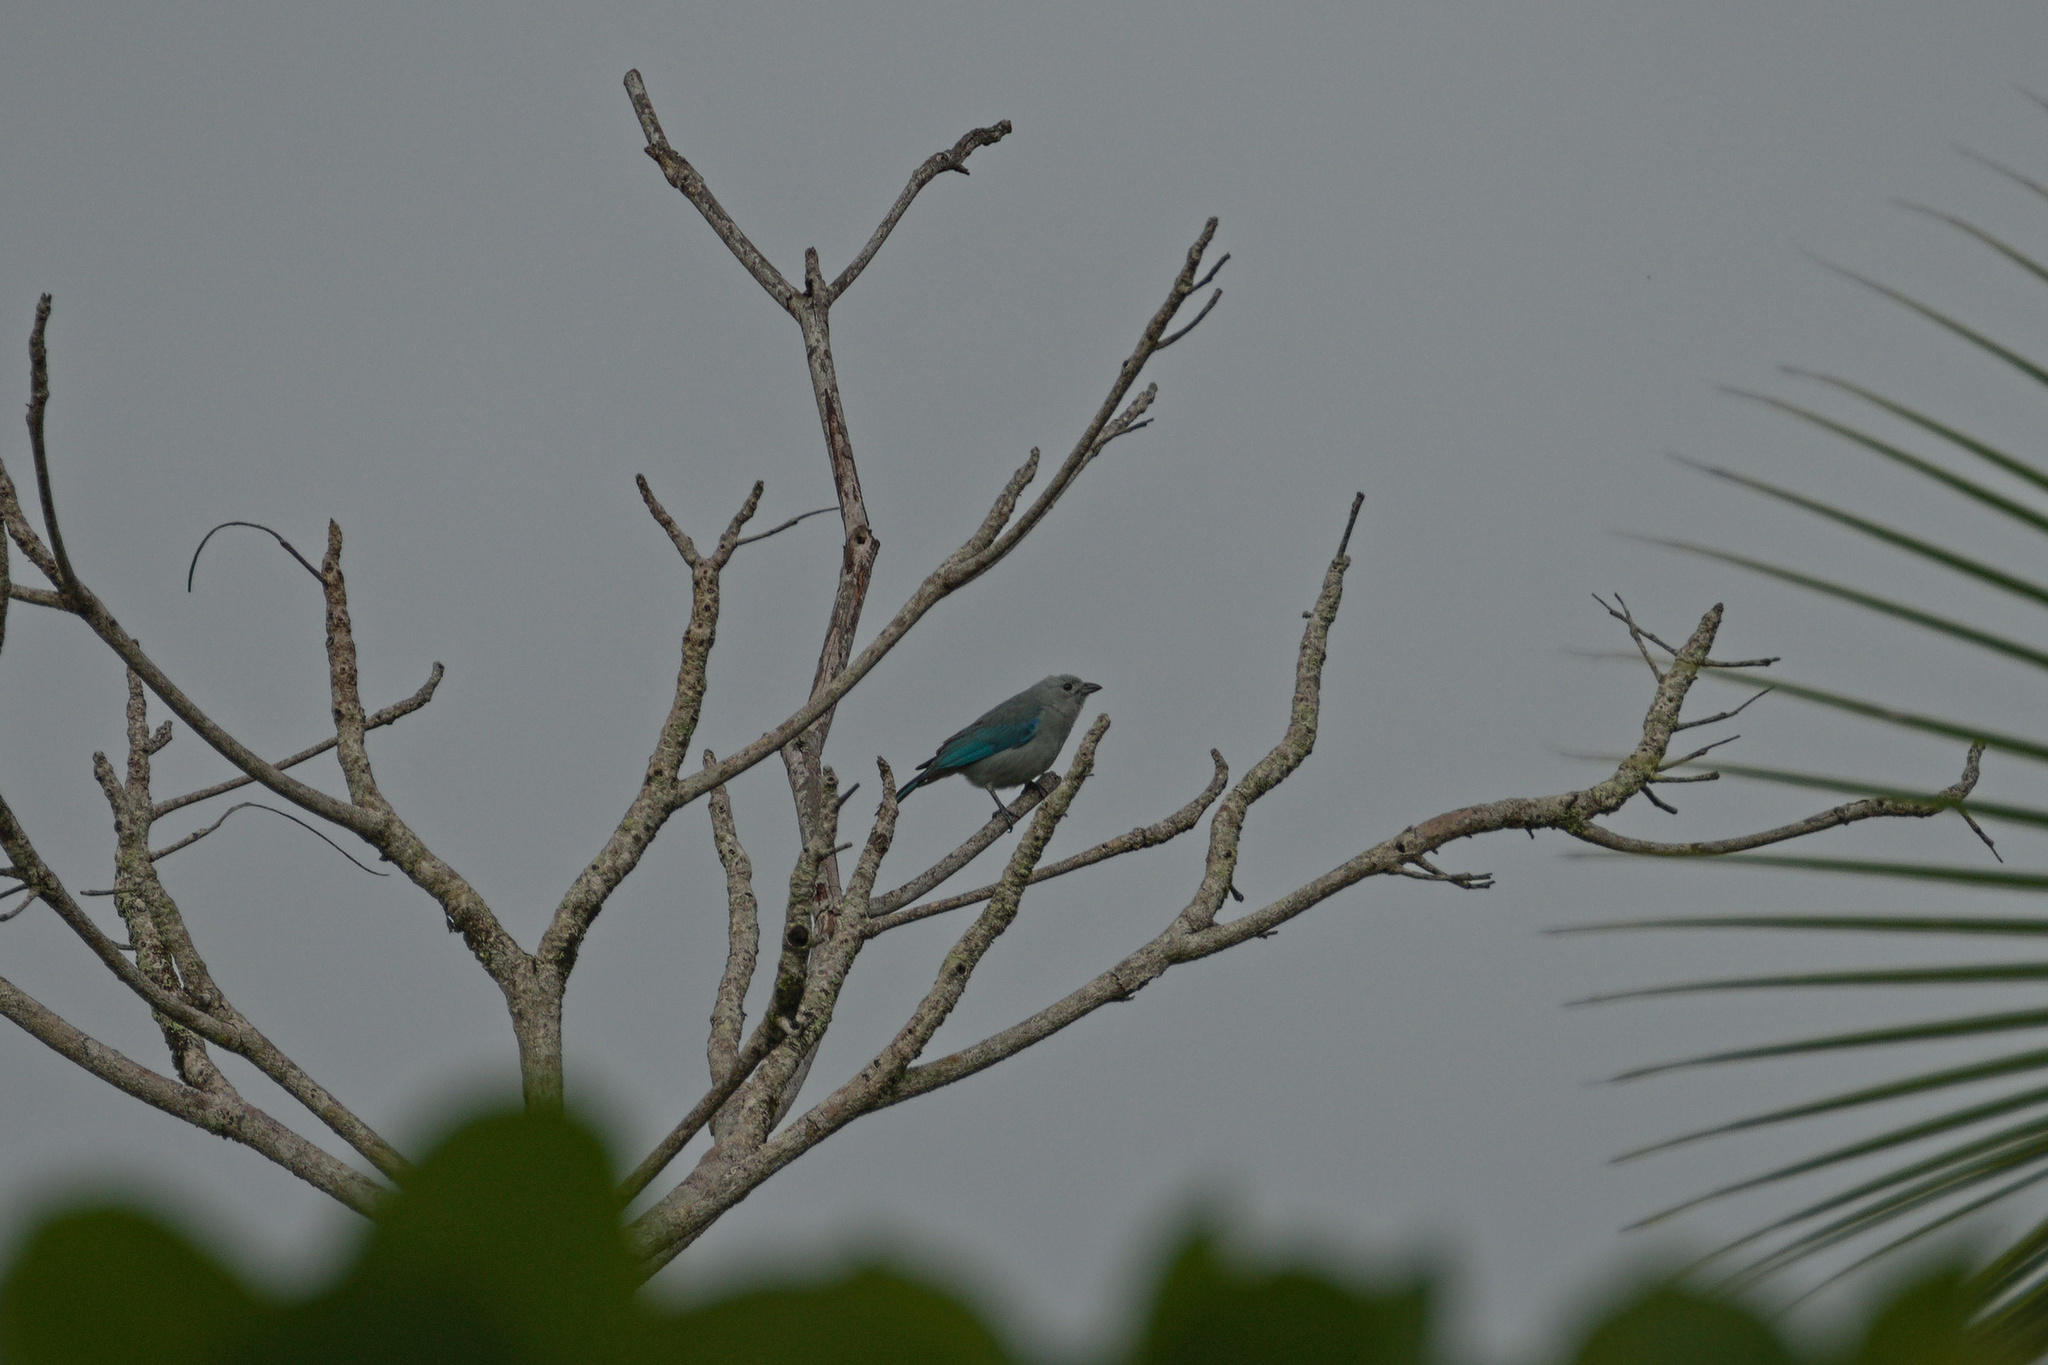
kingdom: Animalia
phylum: Chordata
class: Aves
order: Passeriformes
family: Thraupidae
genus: Thraupis
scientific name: Thraupis episcopus
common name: Blue-grey tanager
